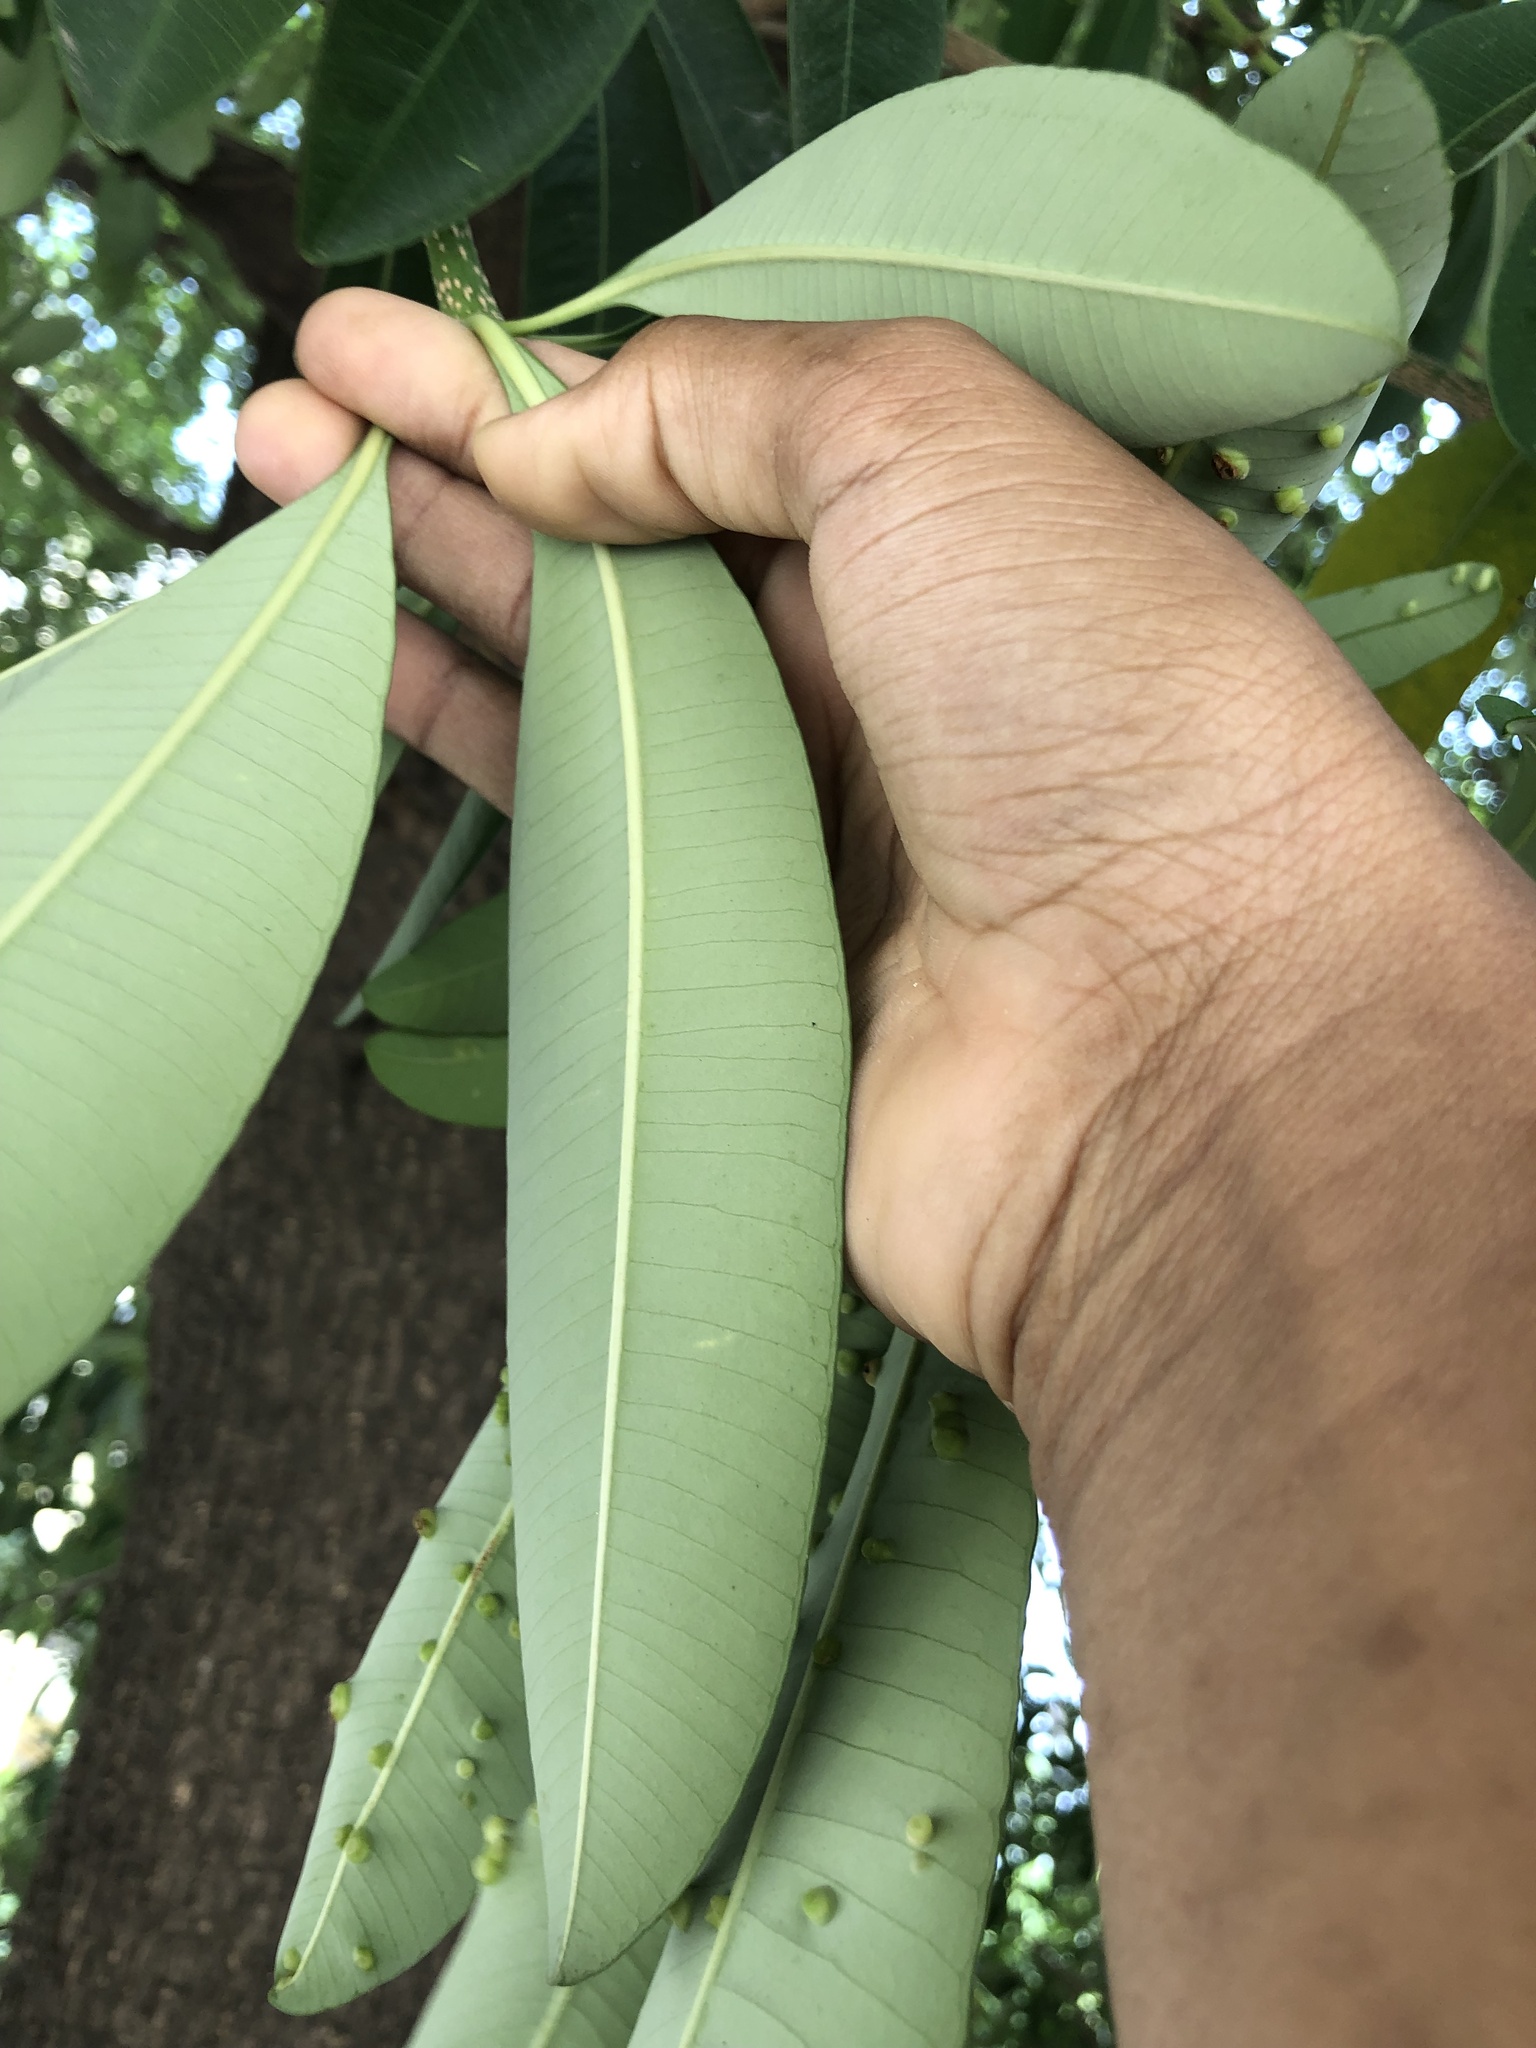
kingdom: Plantae
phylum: Tracheophyta
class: Magnoliopsida
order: Gentianales
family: Apocynaceae
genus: Alstonia
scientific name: Alstonia scholaris
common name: White cheesewood
